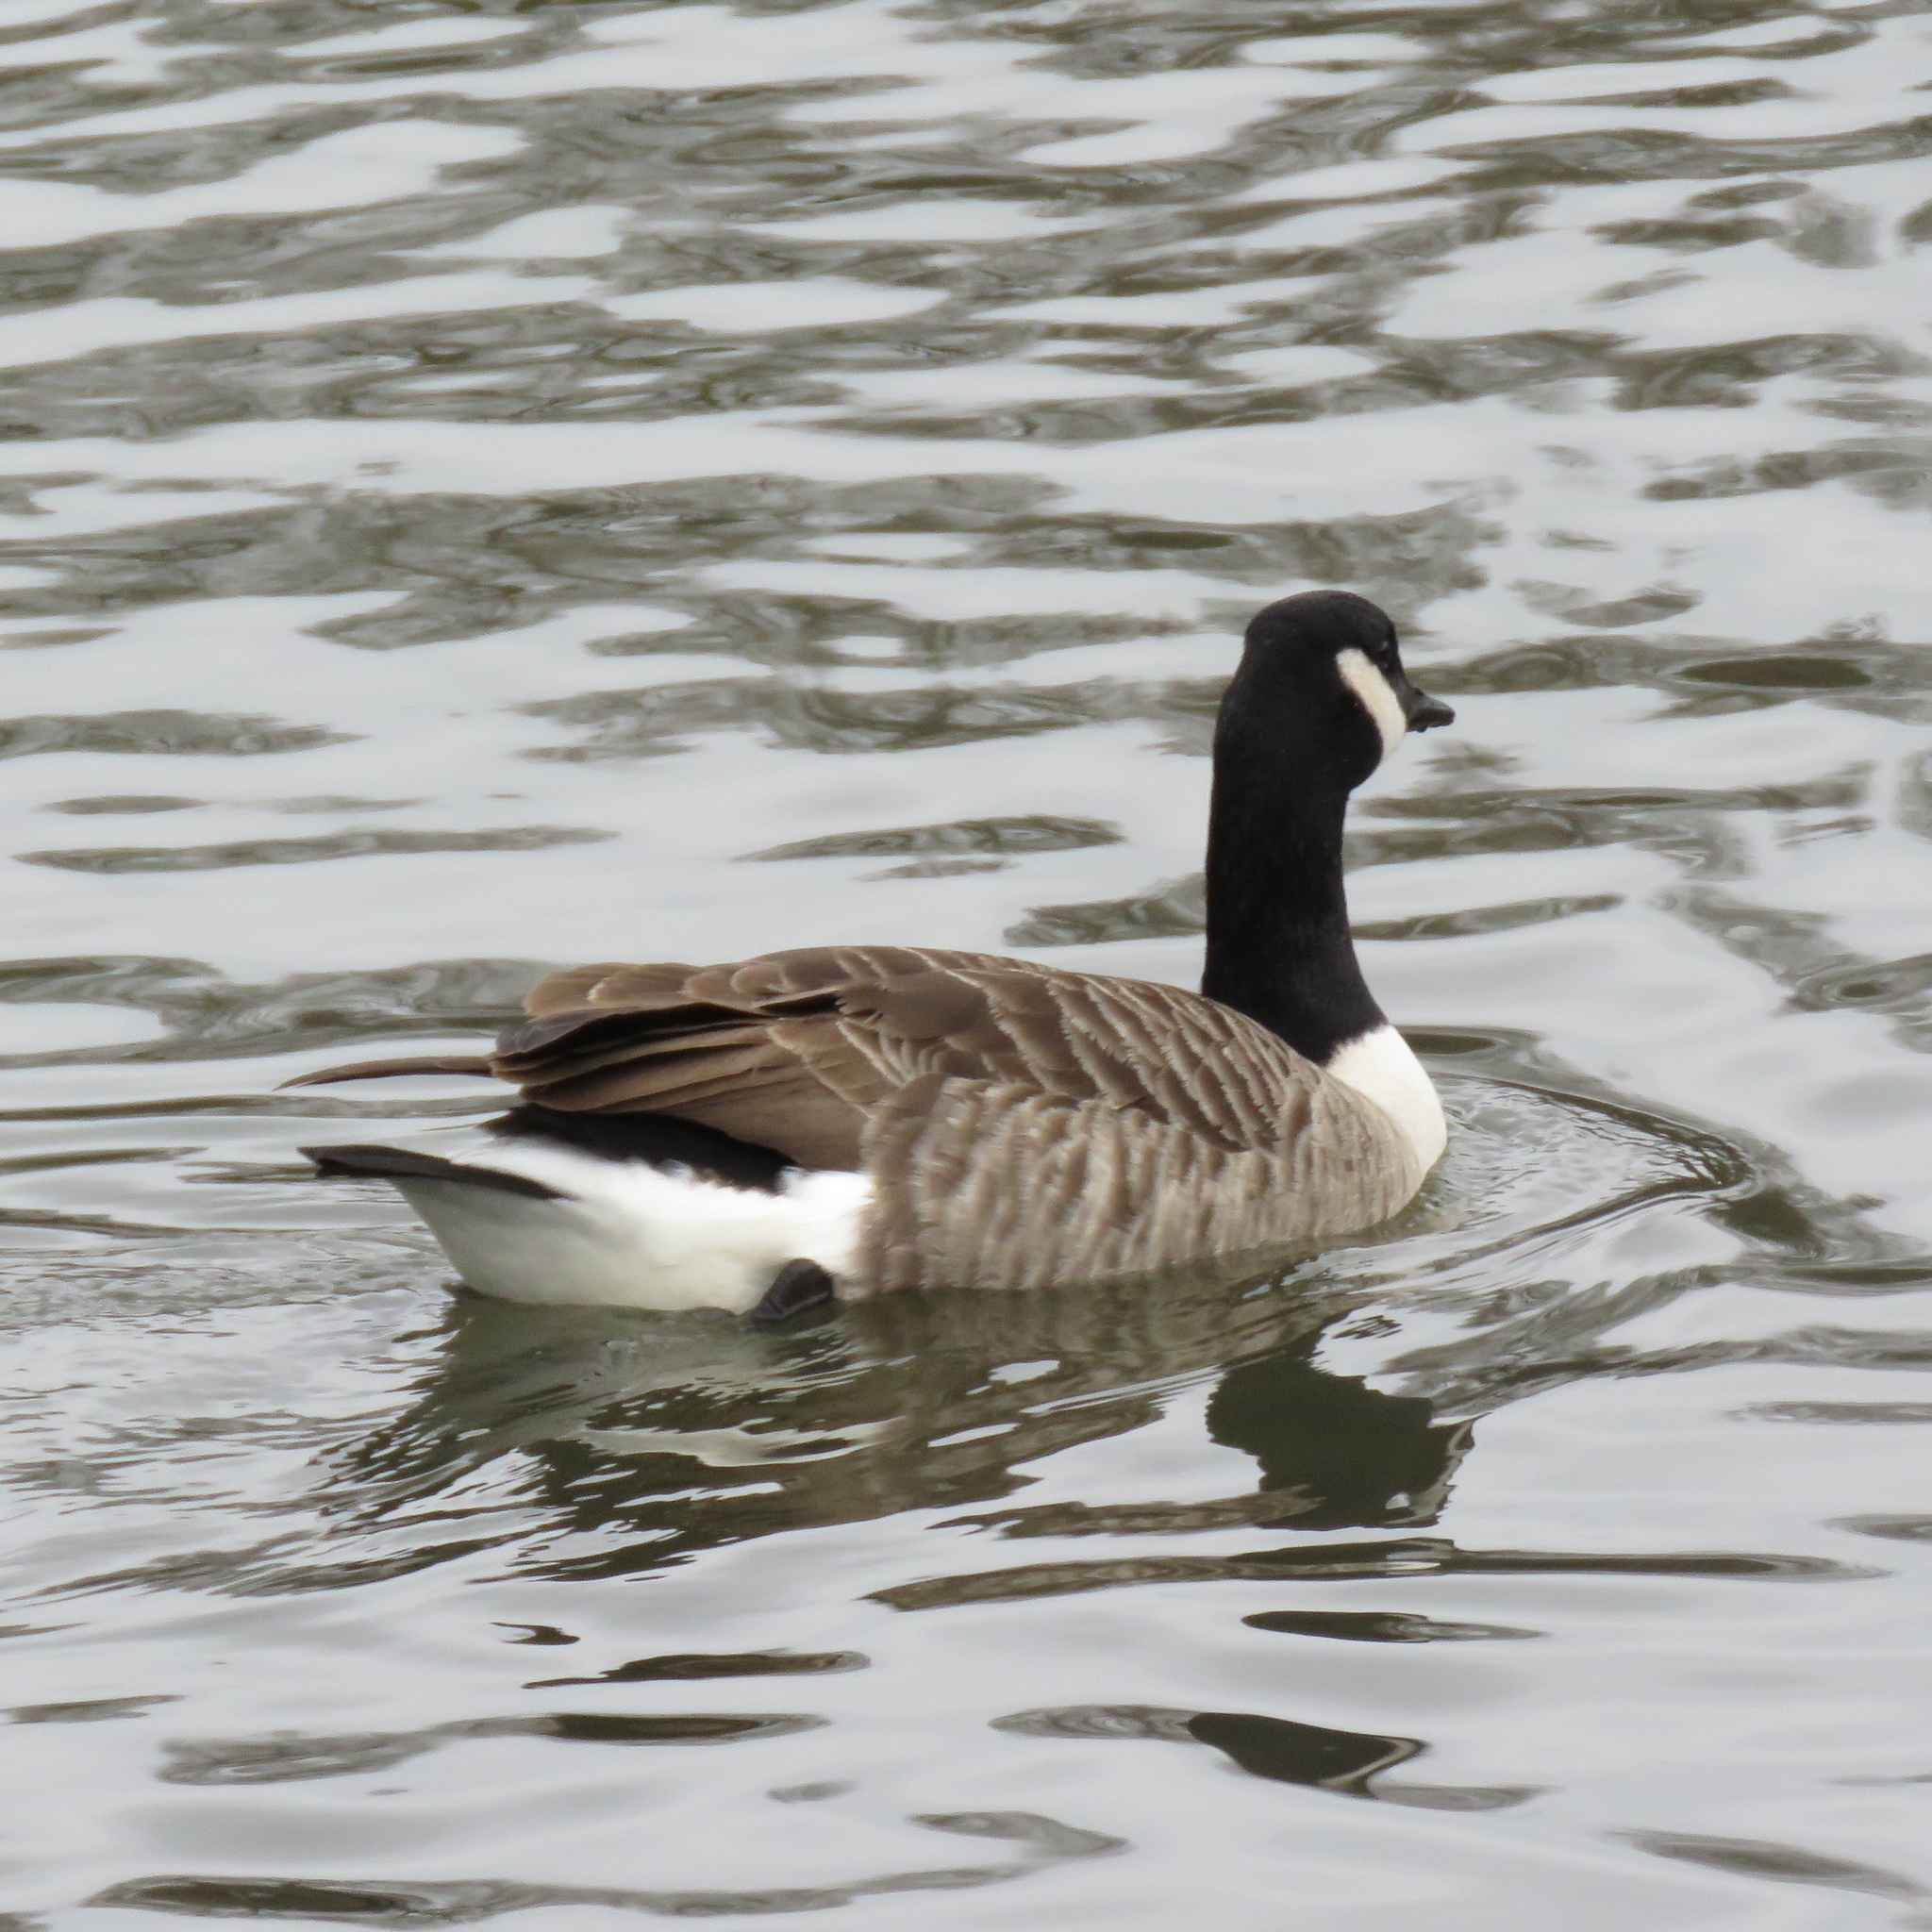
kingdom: Animalia
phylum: Chordata
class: Aves
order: Anseriformes
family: Anatidae
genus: Branta
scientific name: Branta canadensis
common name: Canada goose
